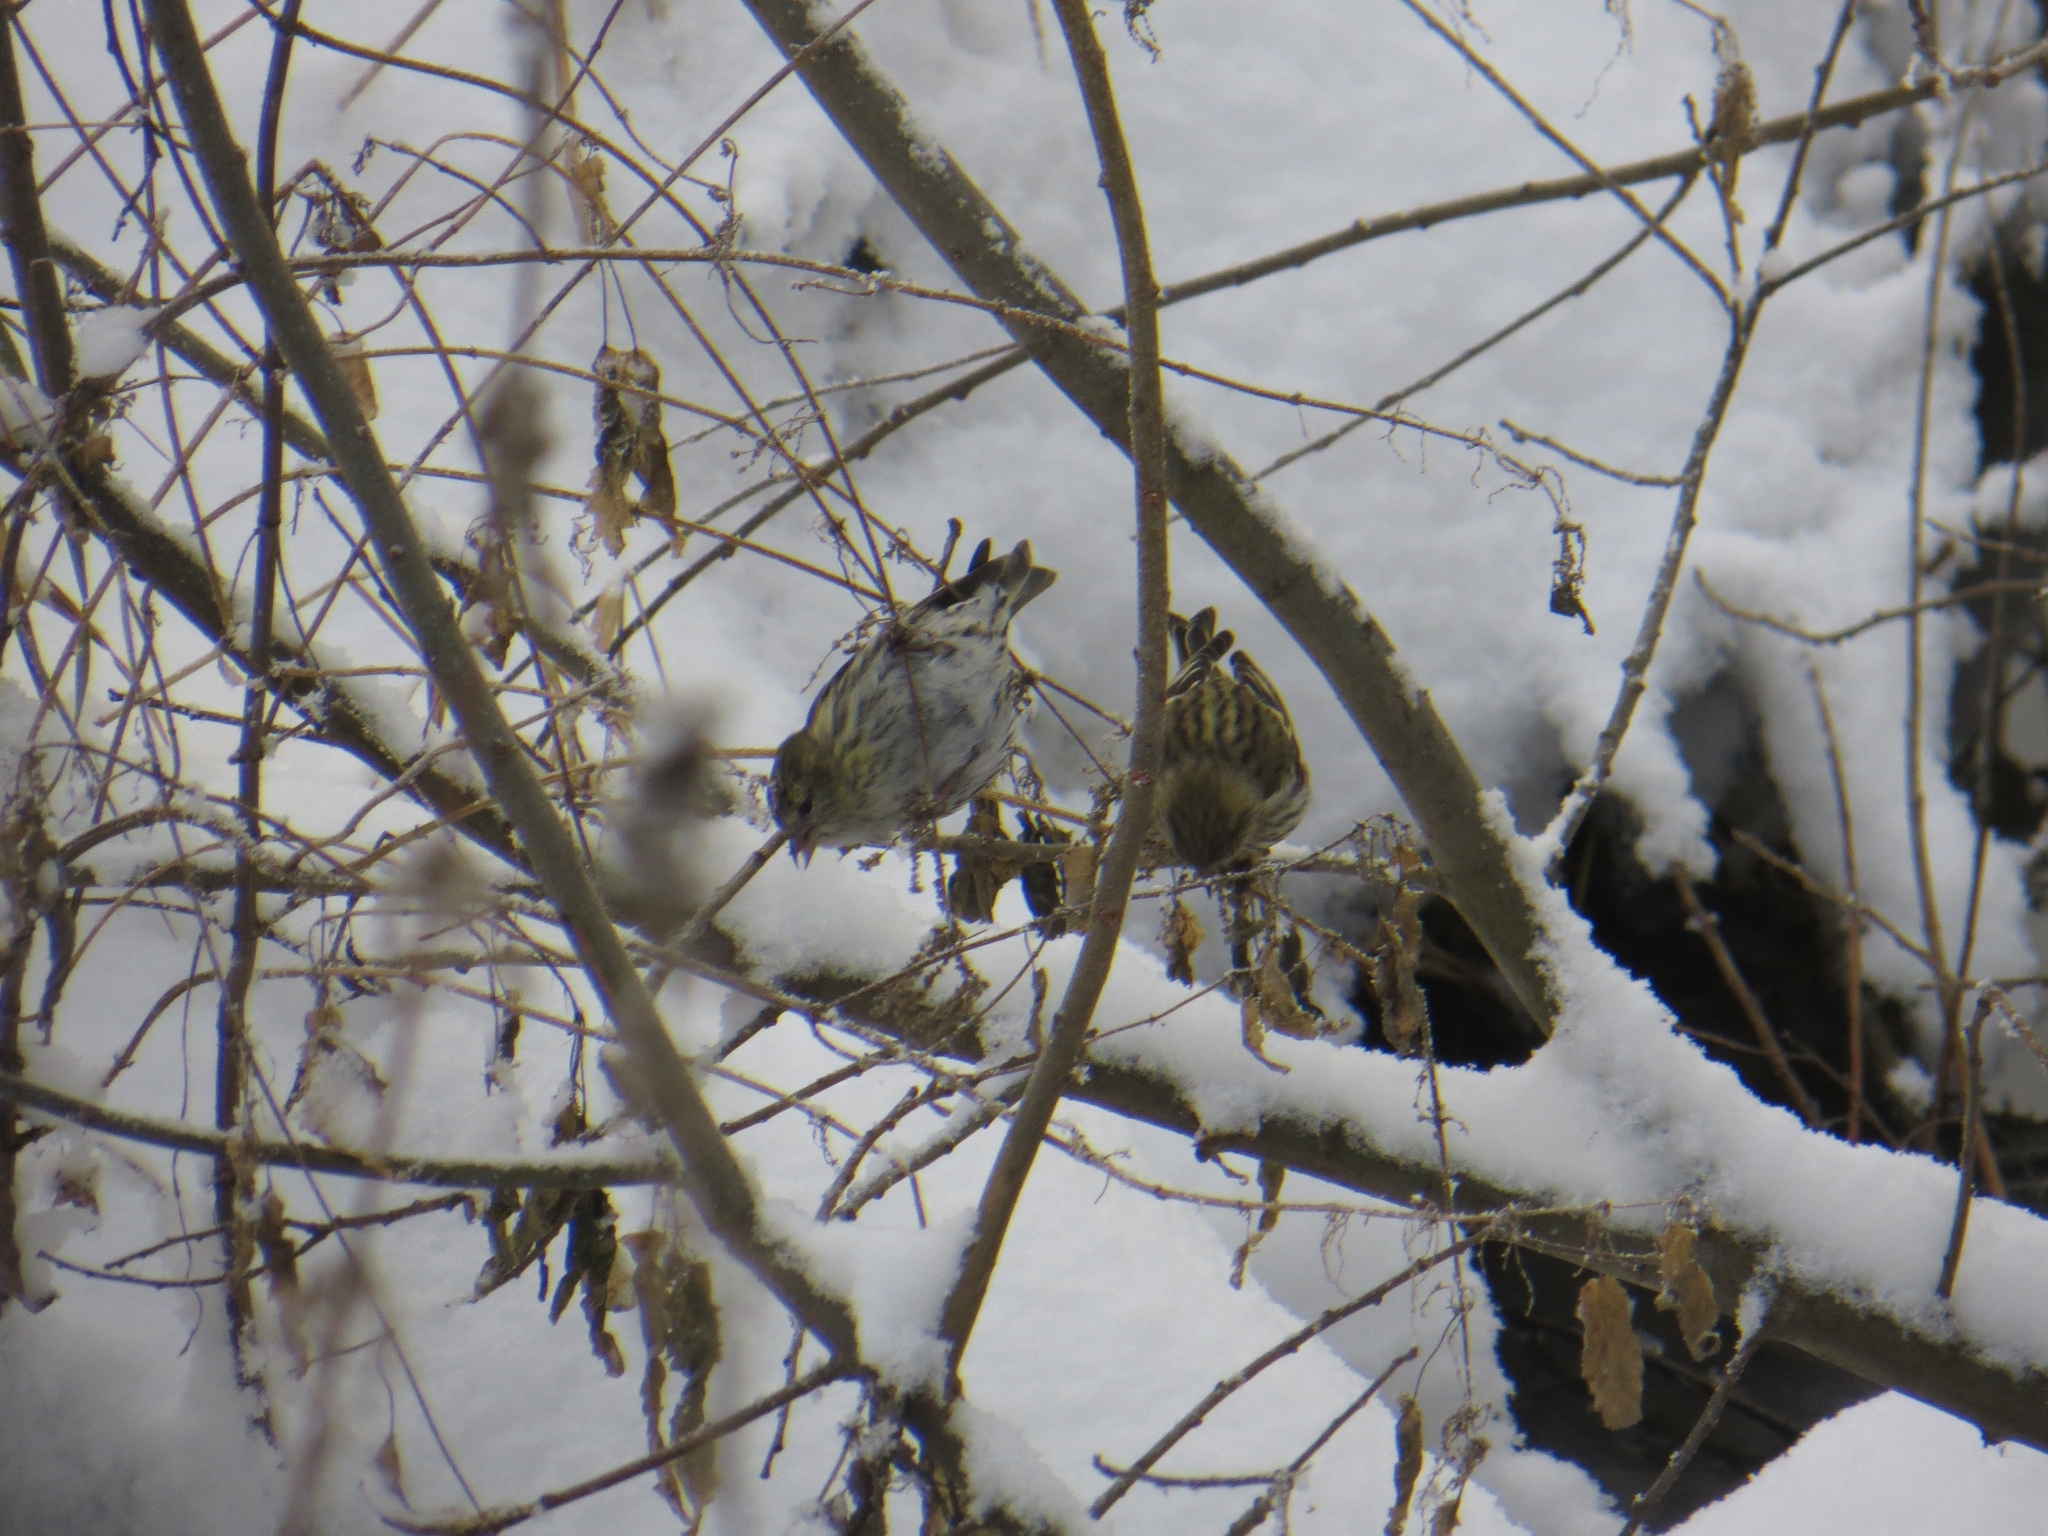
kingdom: Animalia
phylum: Chordata
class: Aves
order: Passeriformes
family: Fringillidae
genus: Spinus
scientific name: Spinus spinus
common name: Eurasian siskin
